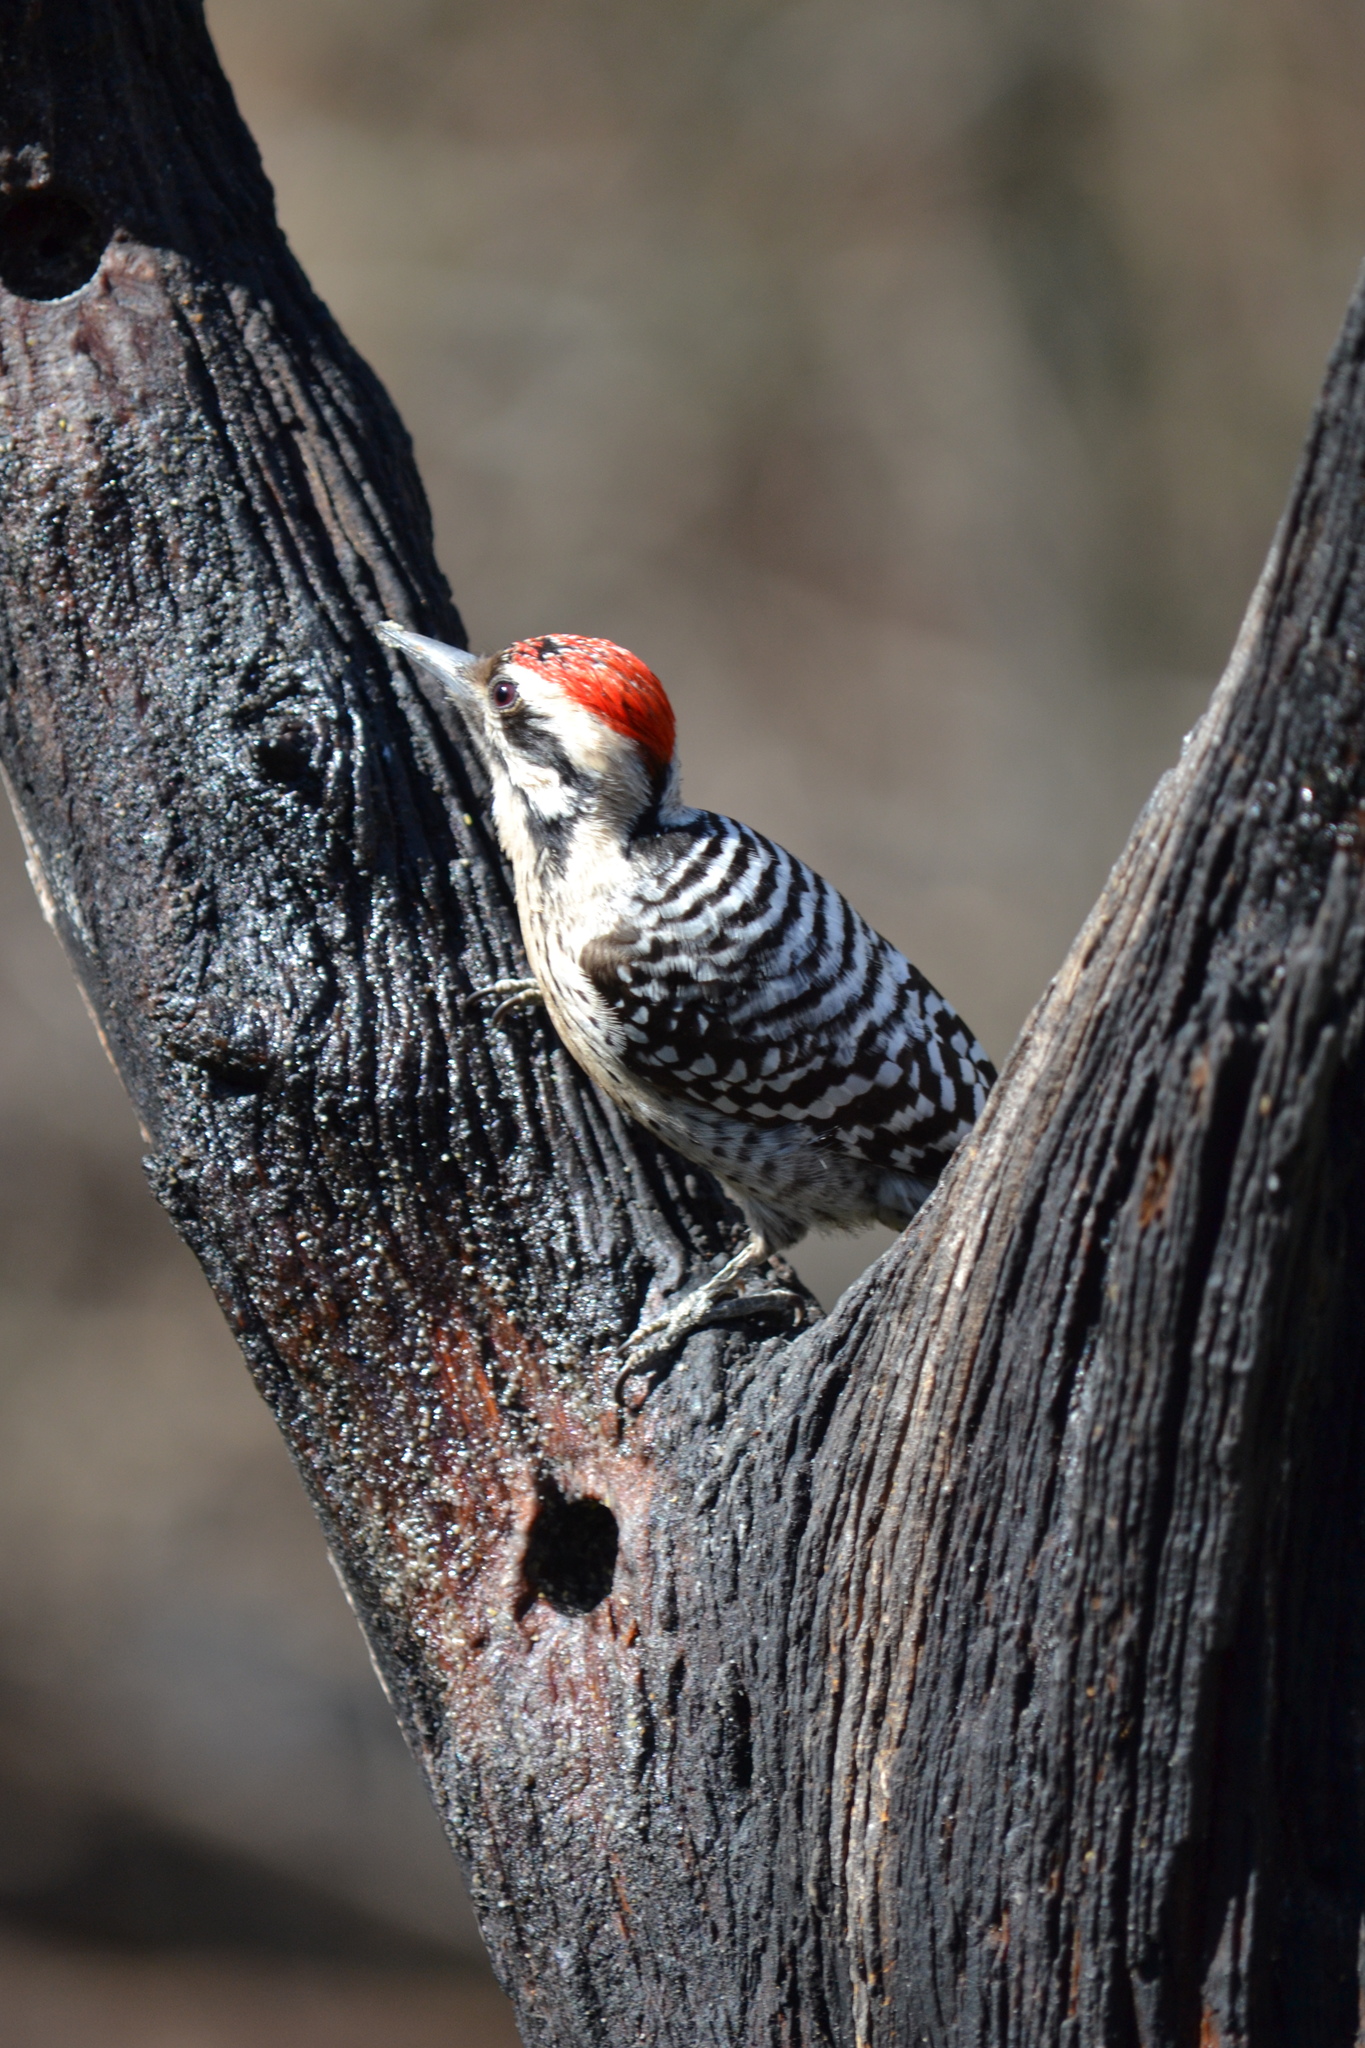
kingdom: Animalia
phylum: Chordata
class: Aves
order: Piciformes
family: Picidae
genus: Dryobates
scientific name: Dryobates scalaris
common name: Ladder-backed woodpecker
